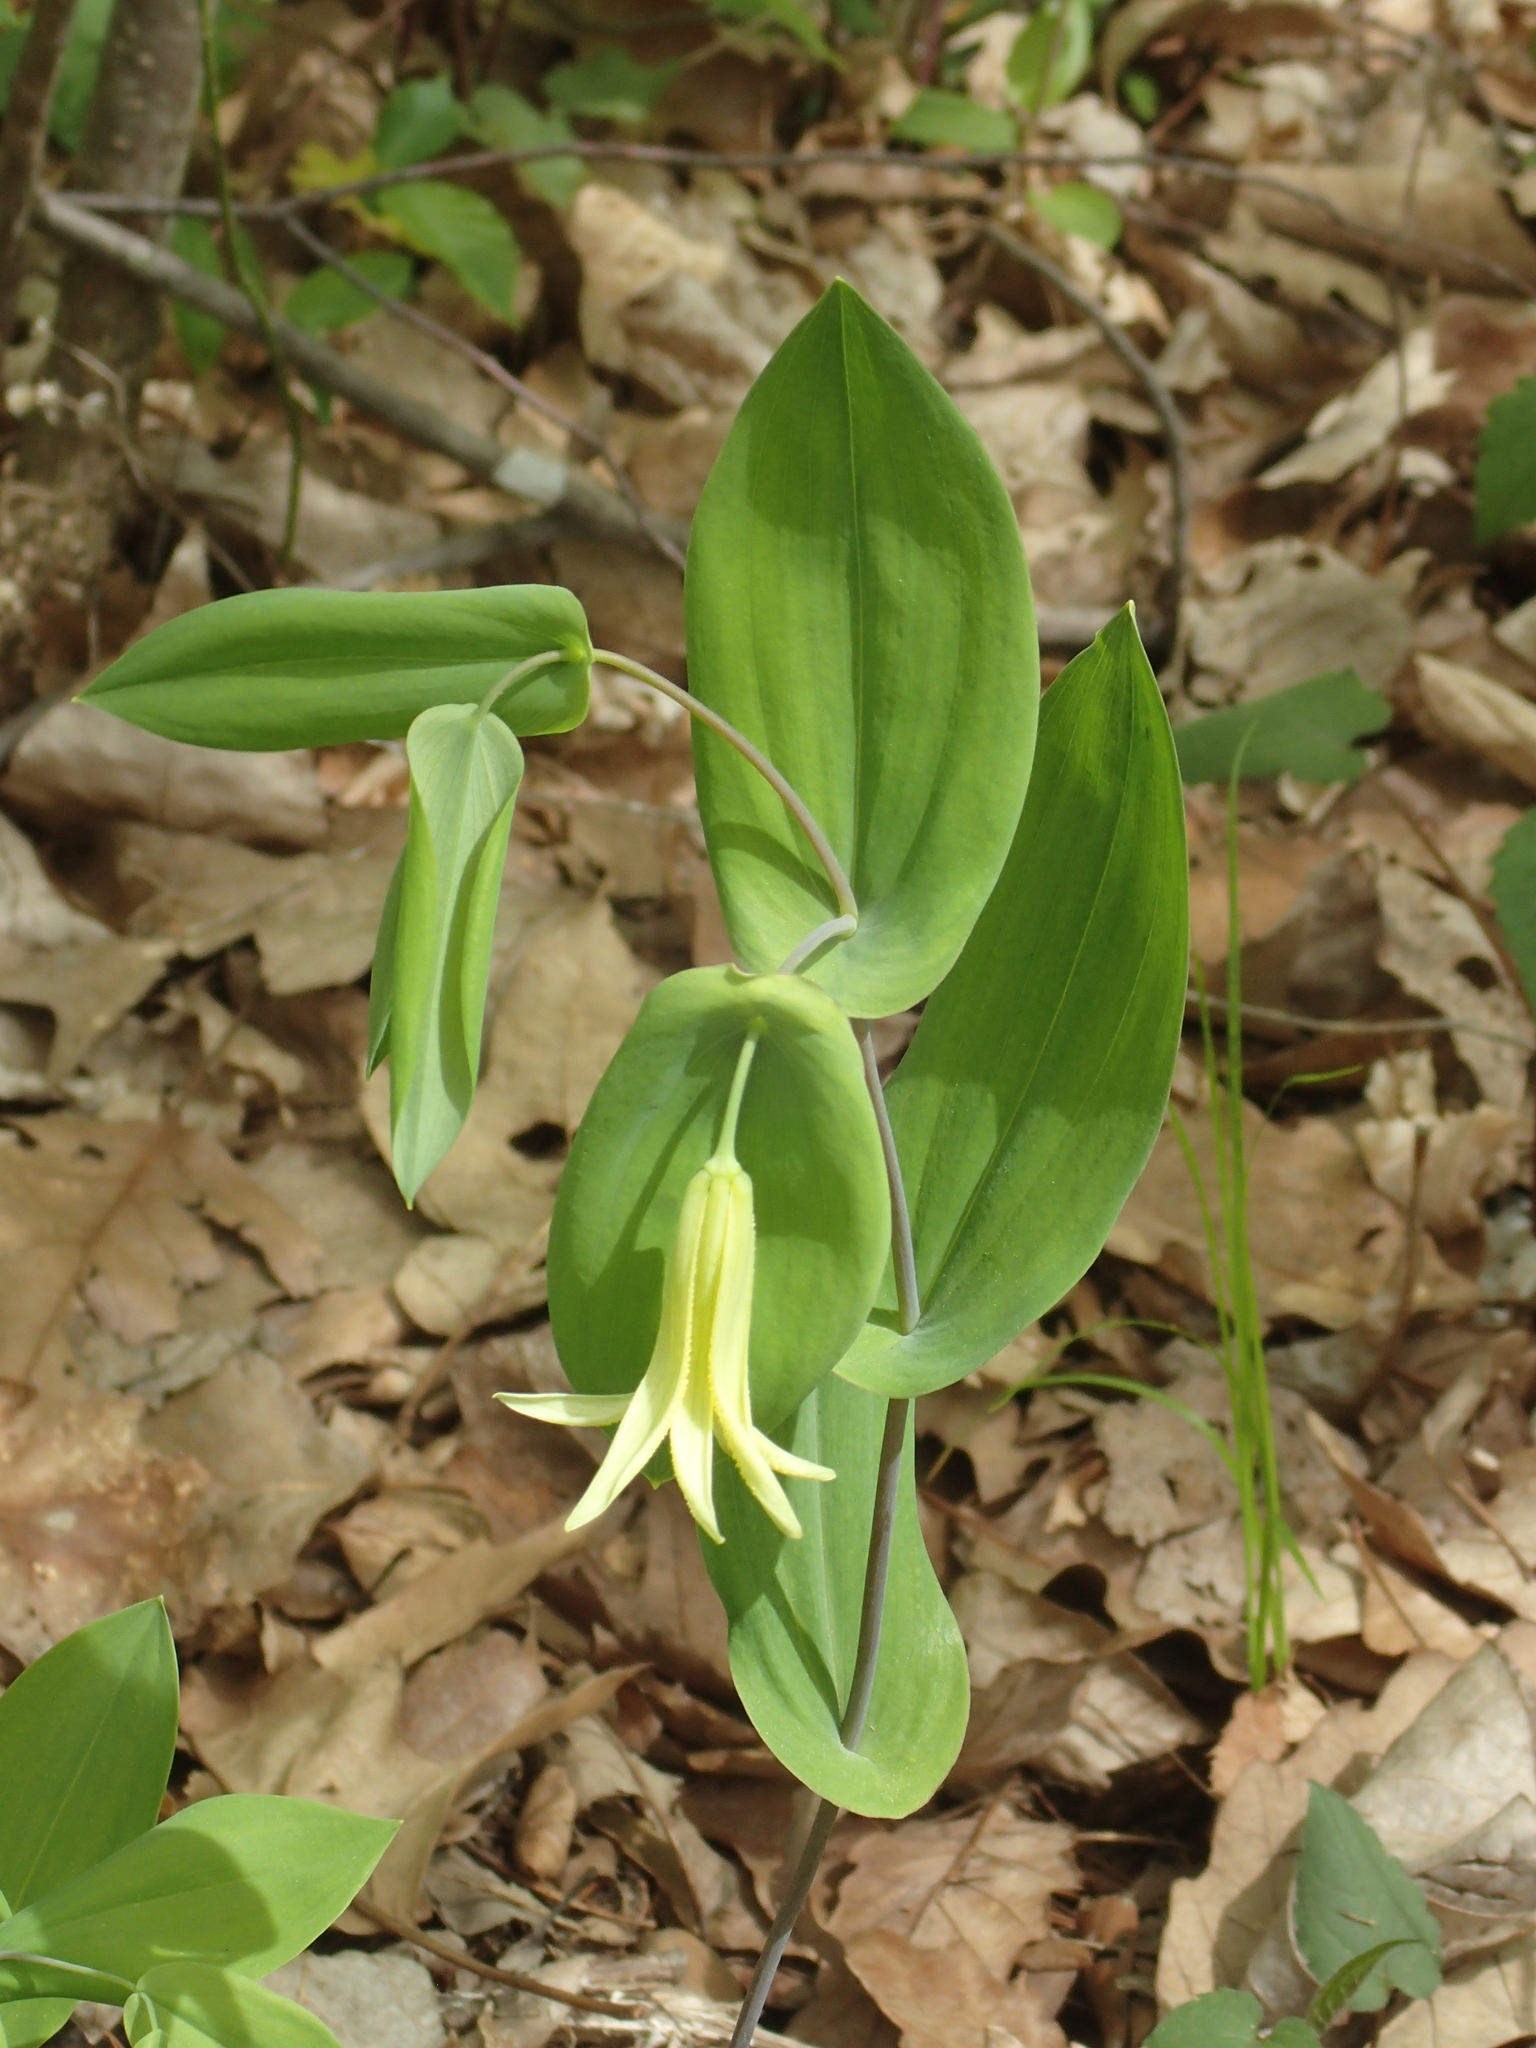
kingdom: Plantae
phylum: Tracheophyta
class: Liliopsida
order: Liliales
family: Colchicaceae
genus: Uvularia
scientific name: Uvularia perfoliata
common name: Perfoliate bellwort
